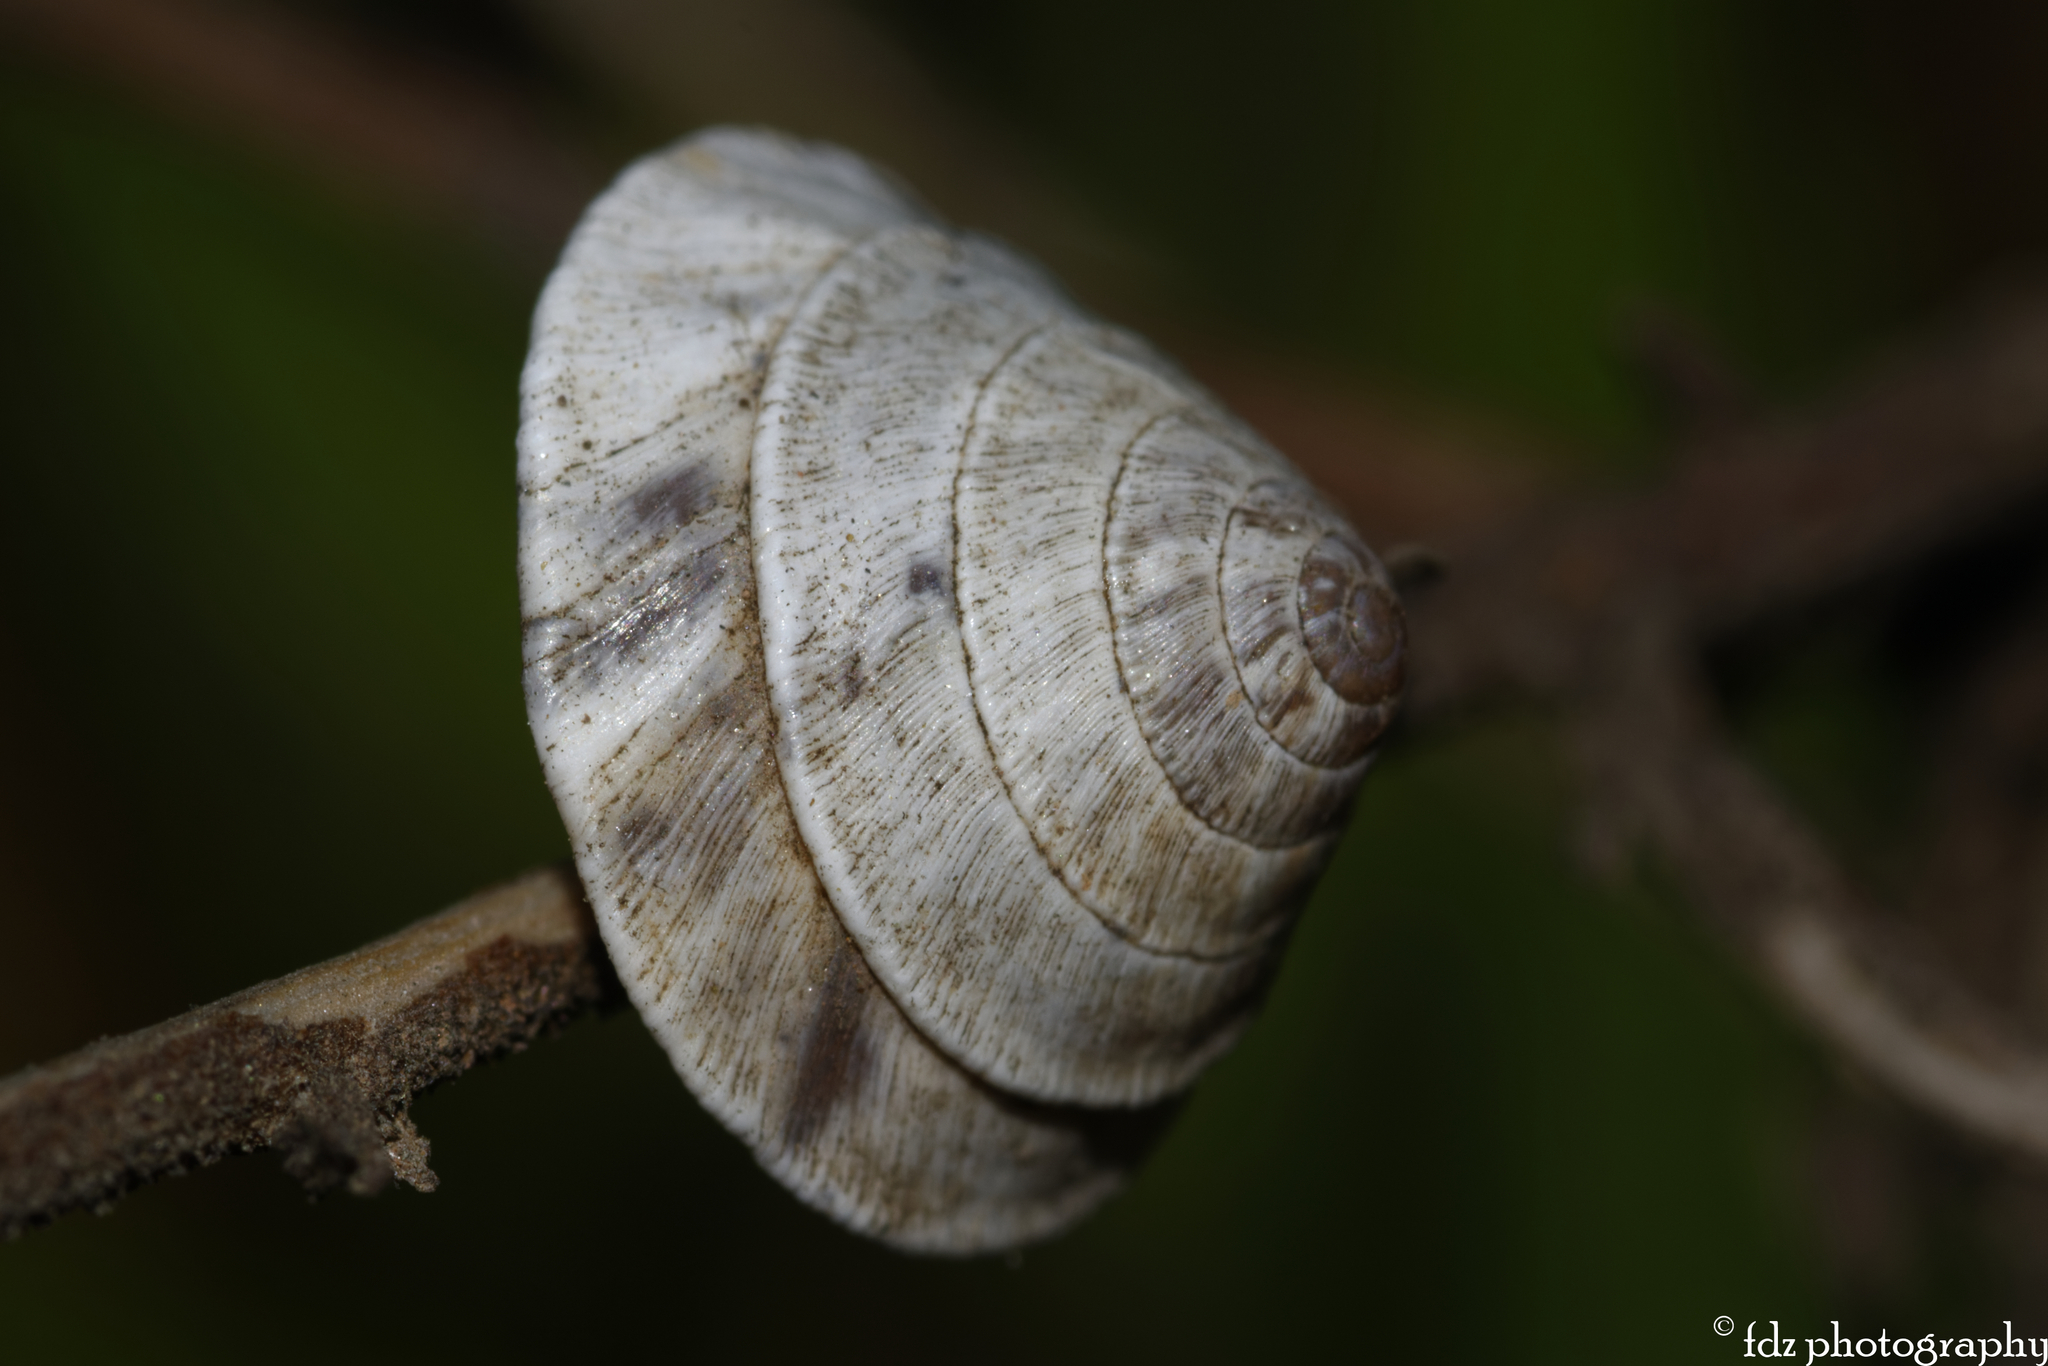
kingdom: Animalia
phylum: Mollusca
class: Gastropoda
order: Stylommatophora
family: Geomitridae
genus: Trochoidea
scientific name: Trochoidea elegans
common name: Elegant helicellid
